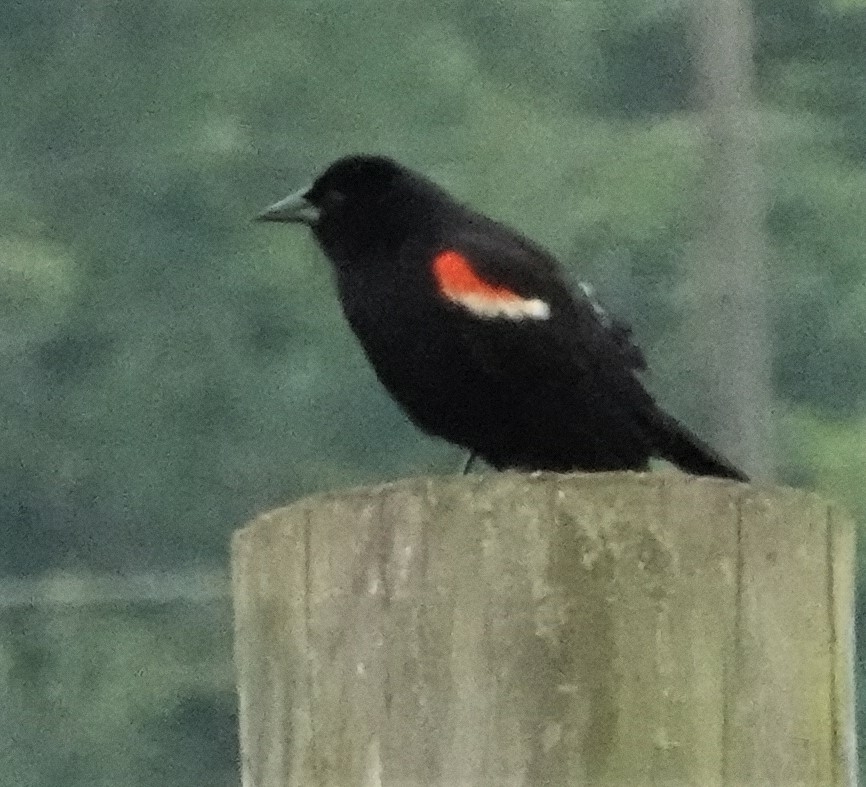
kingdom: Animalia
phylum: Chordata
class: Aves
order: Passeriformes
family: Icteridae
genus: Agelaius
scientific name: Agelaius phoeniceus
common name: Red-winged blackbird
